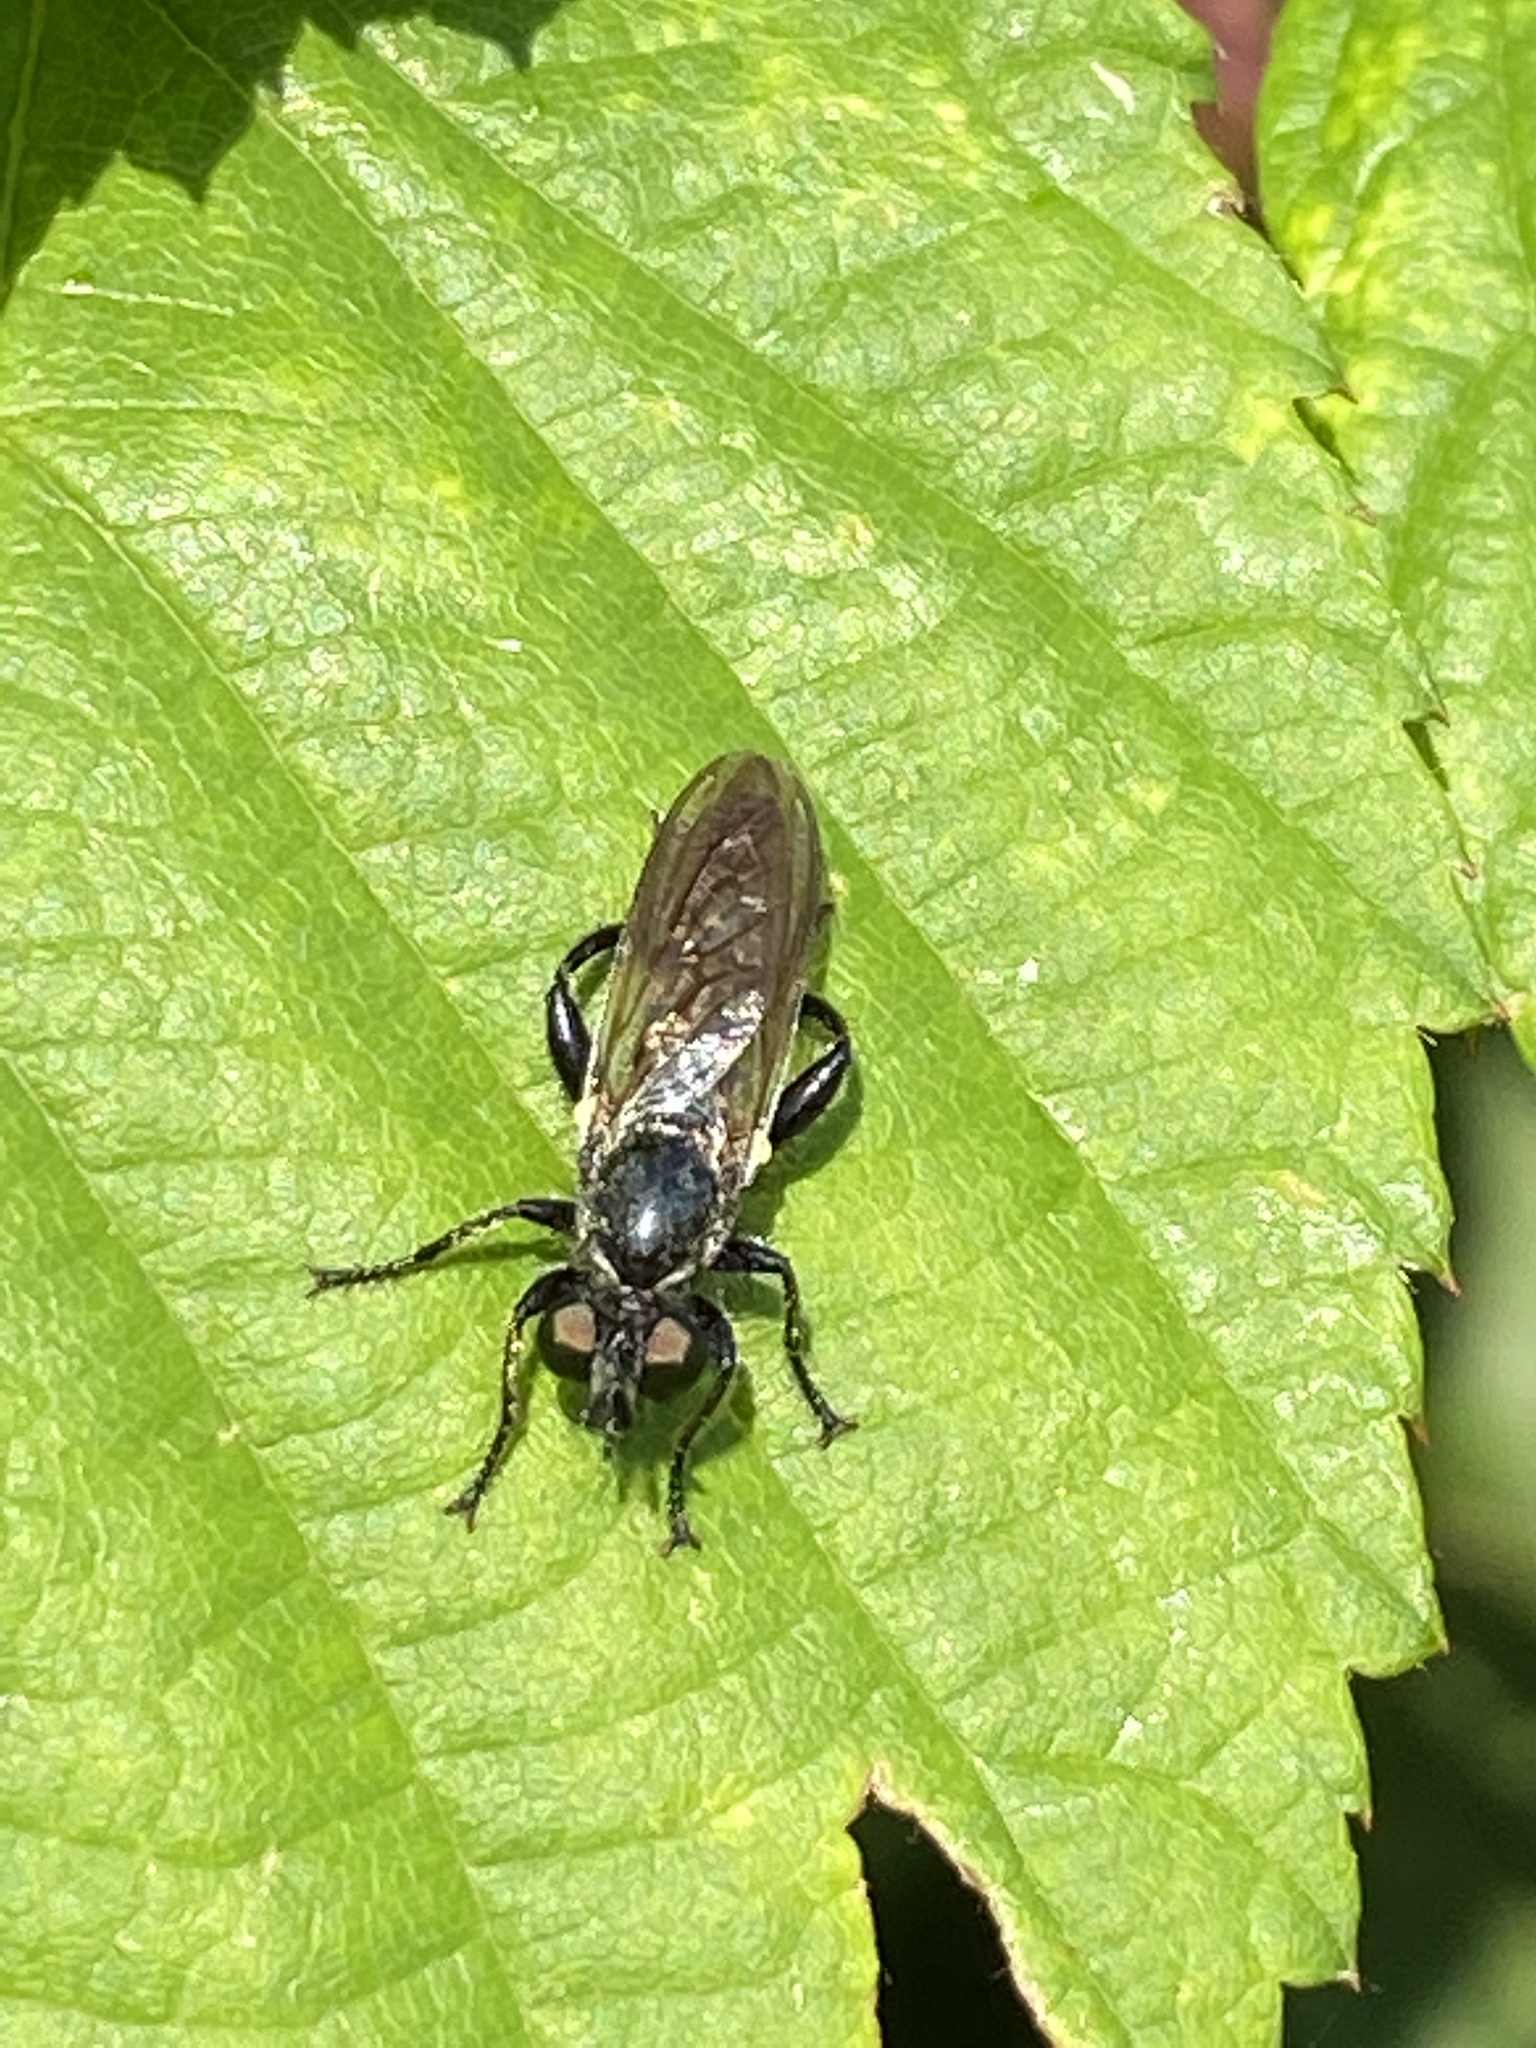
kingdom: Animalia
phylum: Arthropoda
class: Insecta
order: Diptera
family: Asilidae
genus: Lamyra
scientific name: Lamyra marginata
